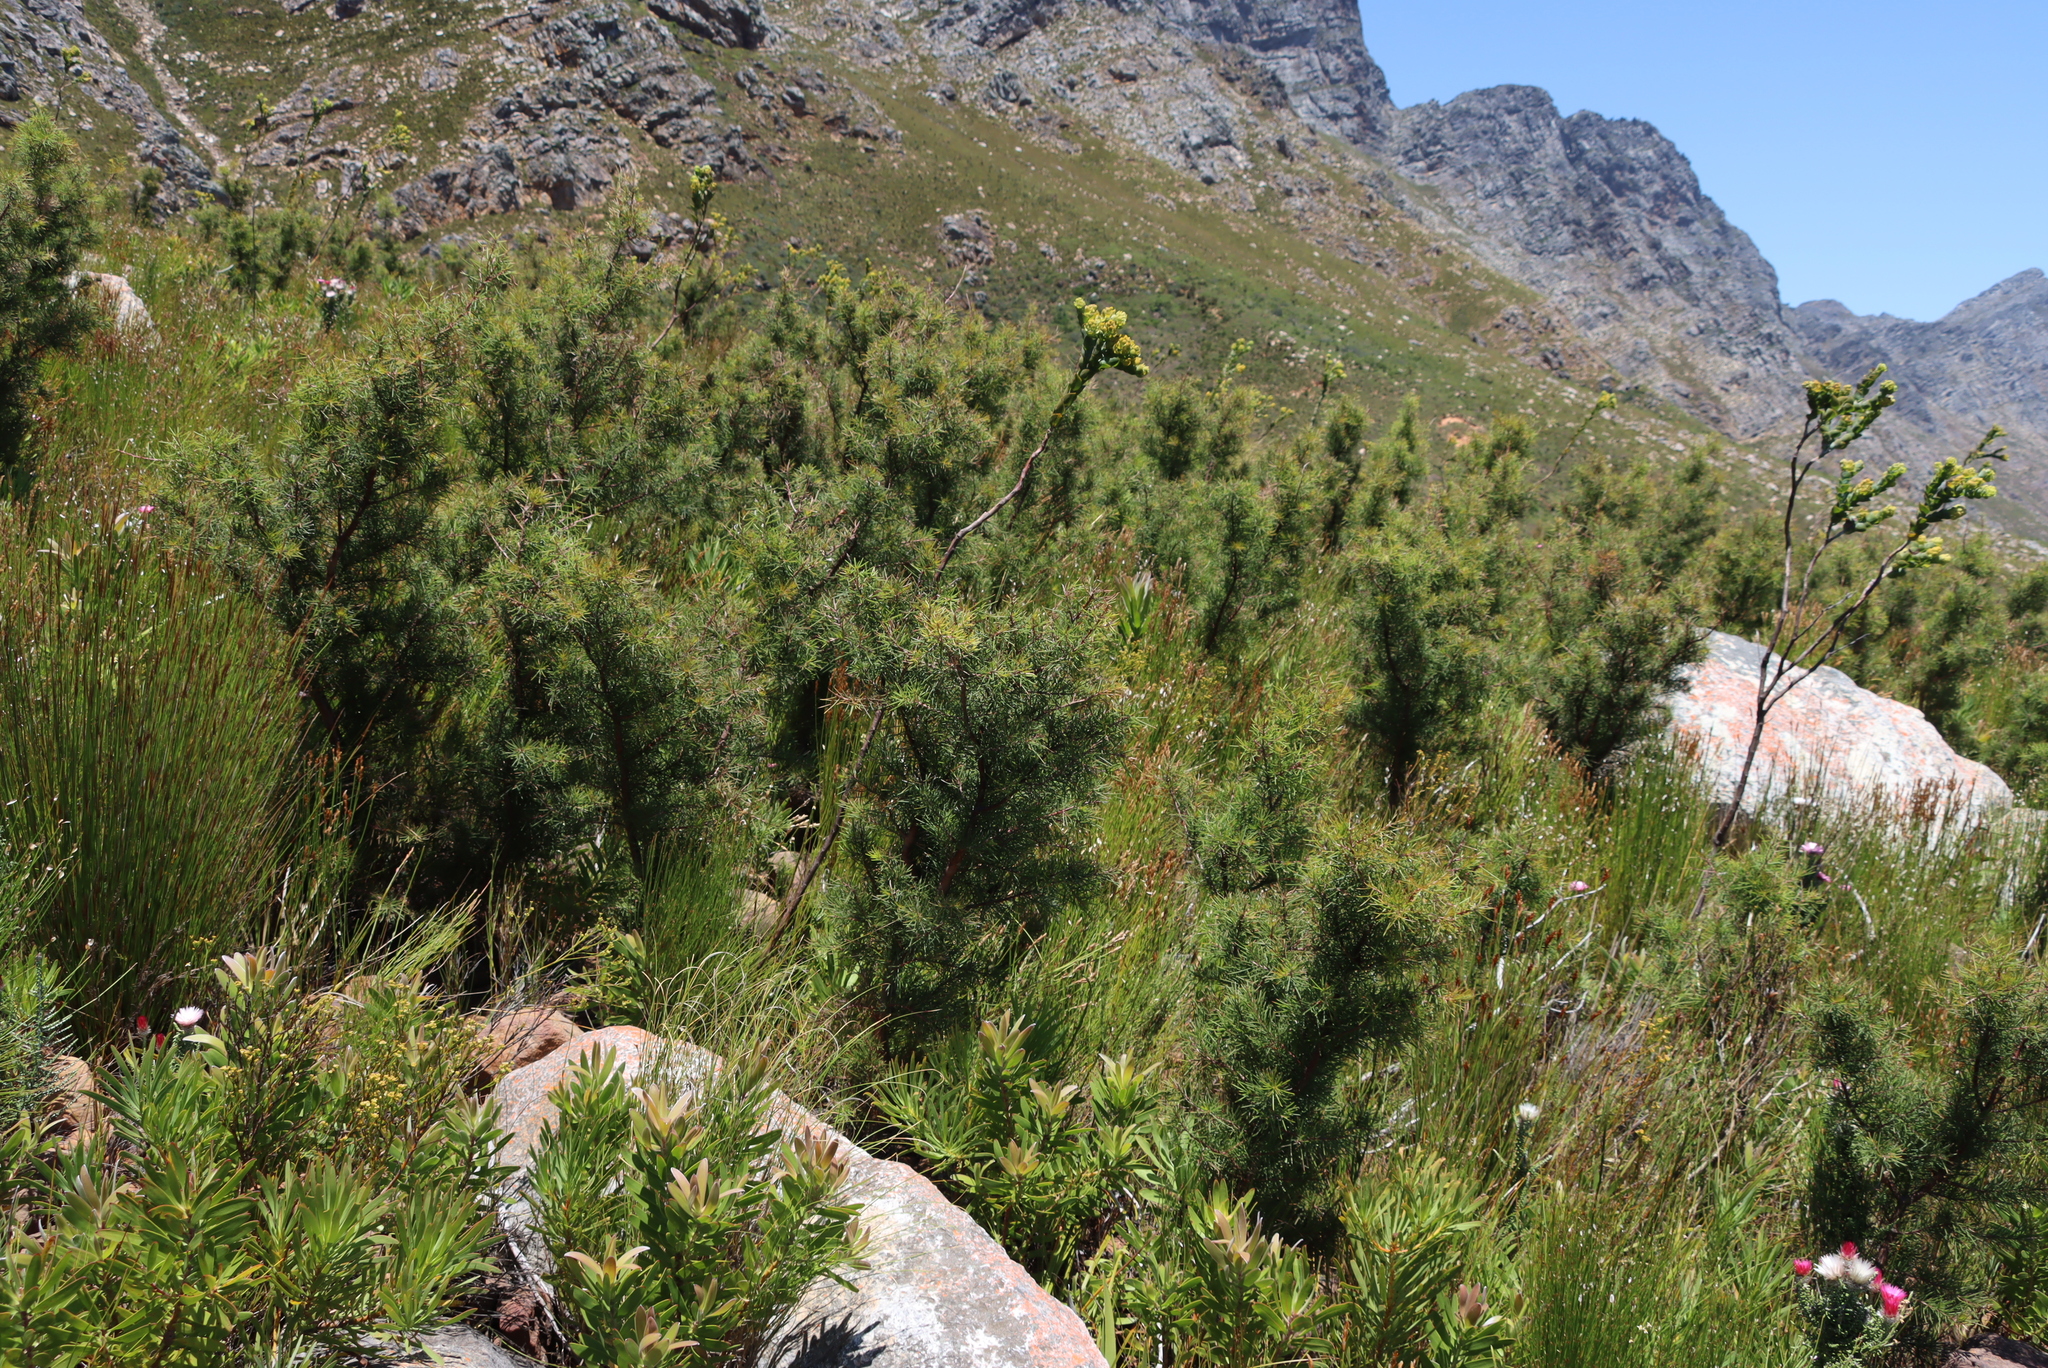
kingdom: Plantae
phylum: Tracheophyta
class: Magnoliopsida
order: Proteales
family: Proteaceae
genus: Hakea
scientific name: Hakea sericea
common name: Needle bush
